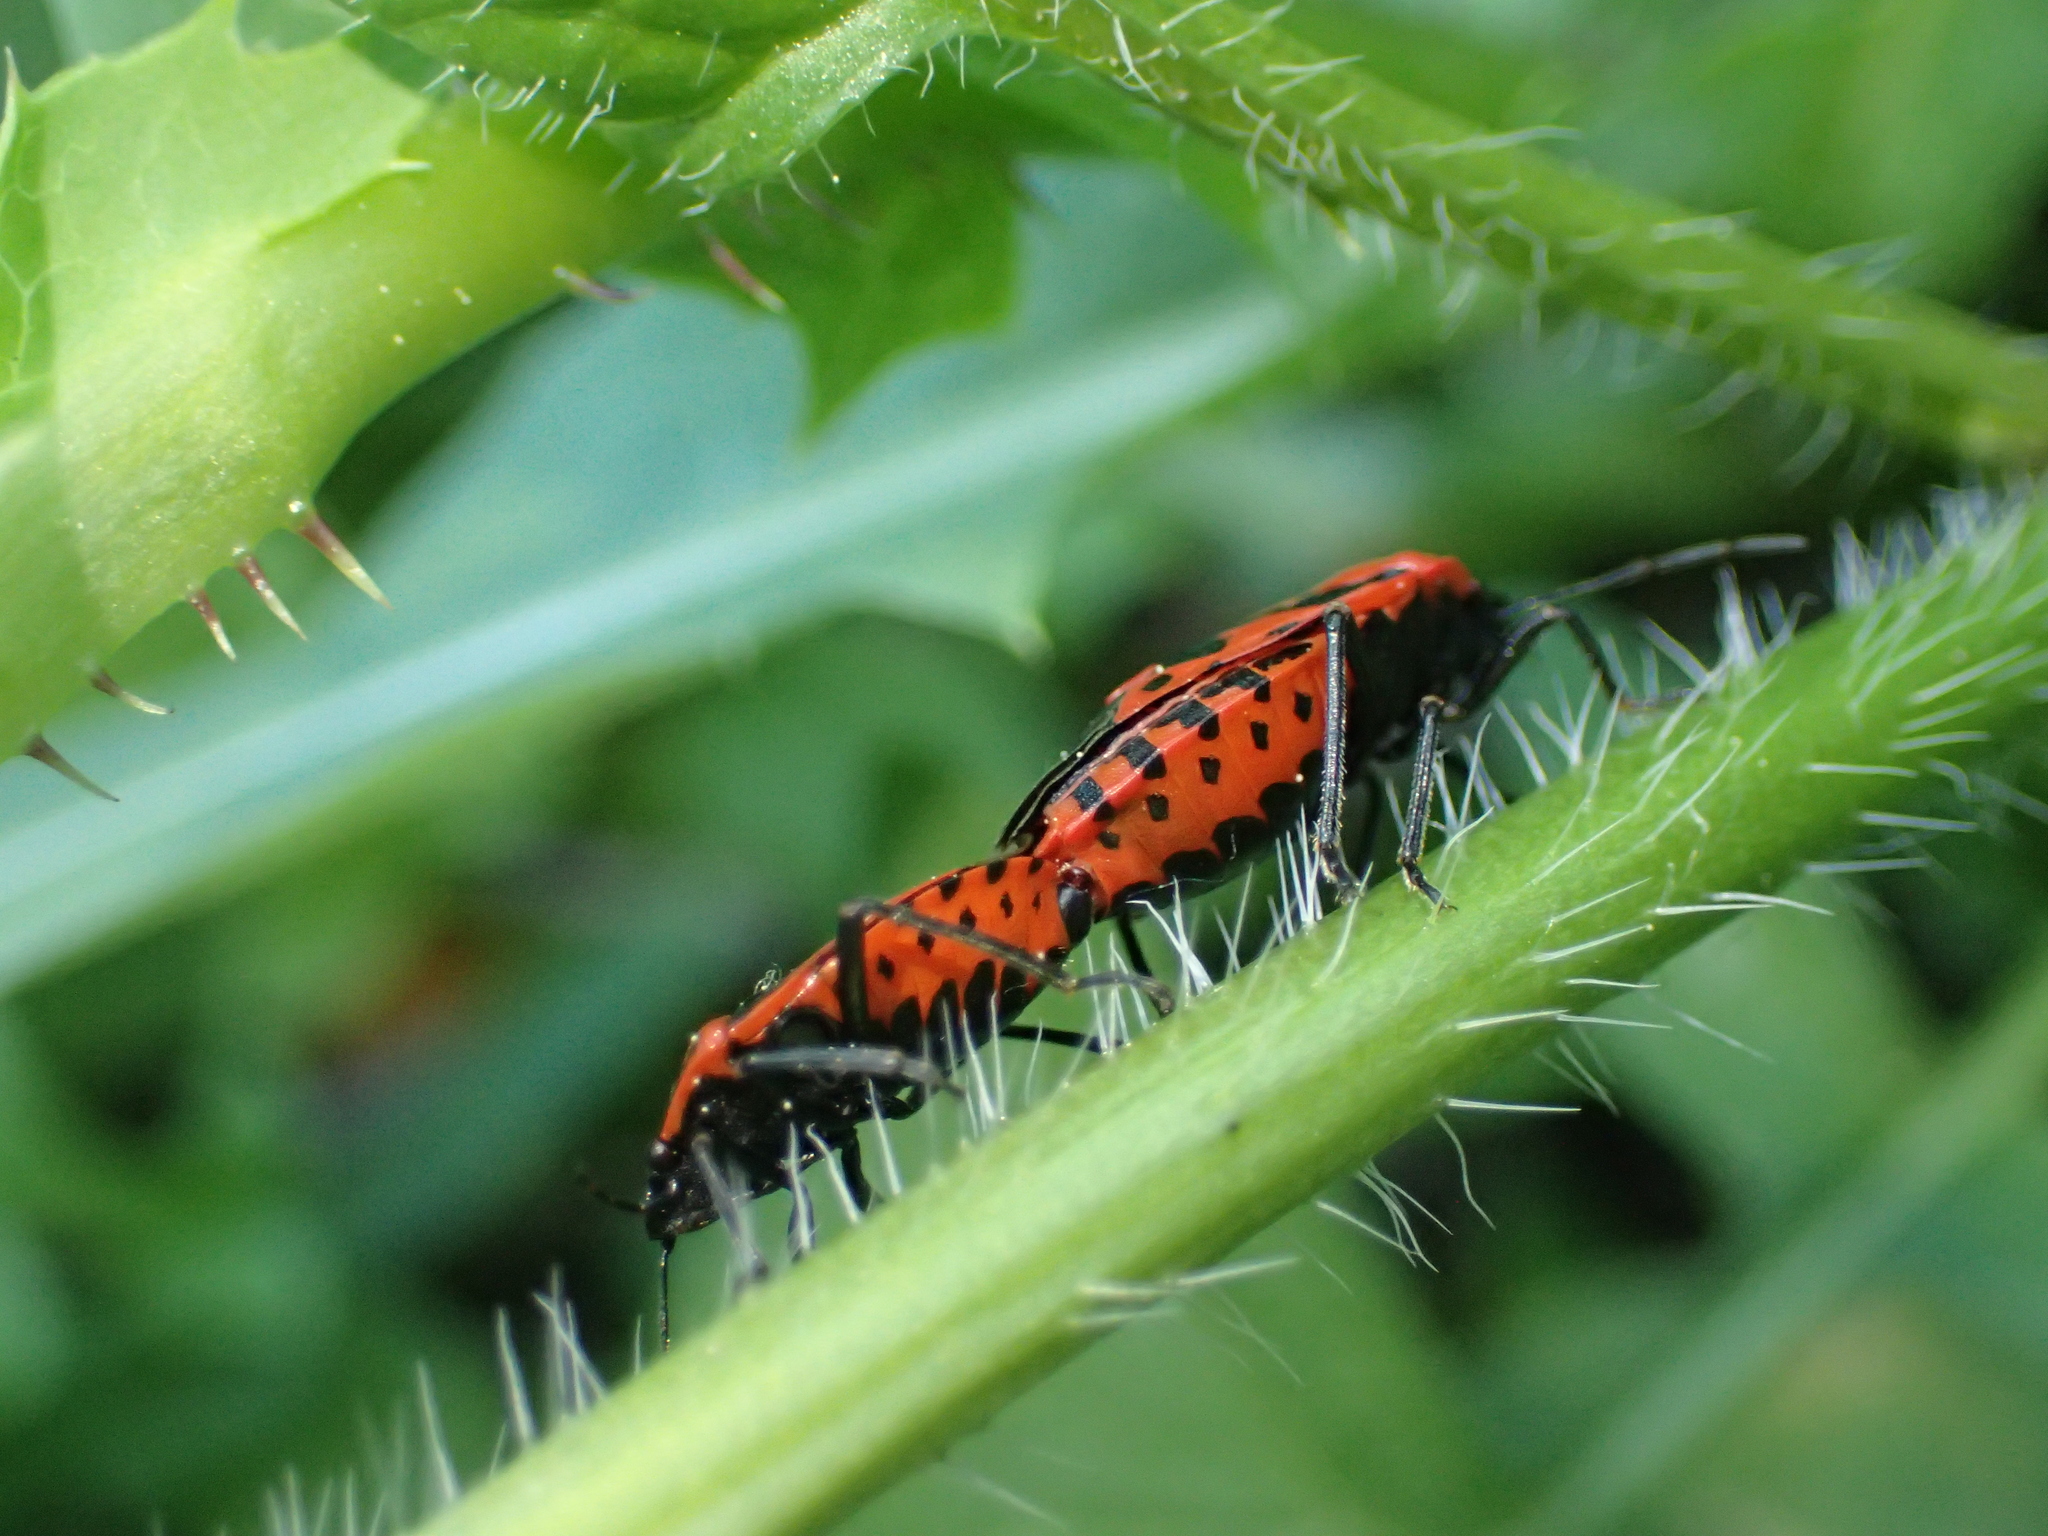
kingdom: Animalia
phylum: Arthropoda
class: Insecta
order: Hemiptera
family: Pentatomidae
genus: Eurydema
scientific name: Eurydema ventralis
